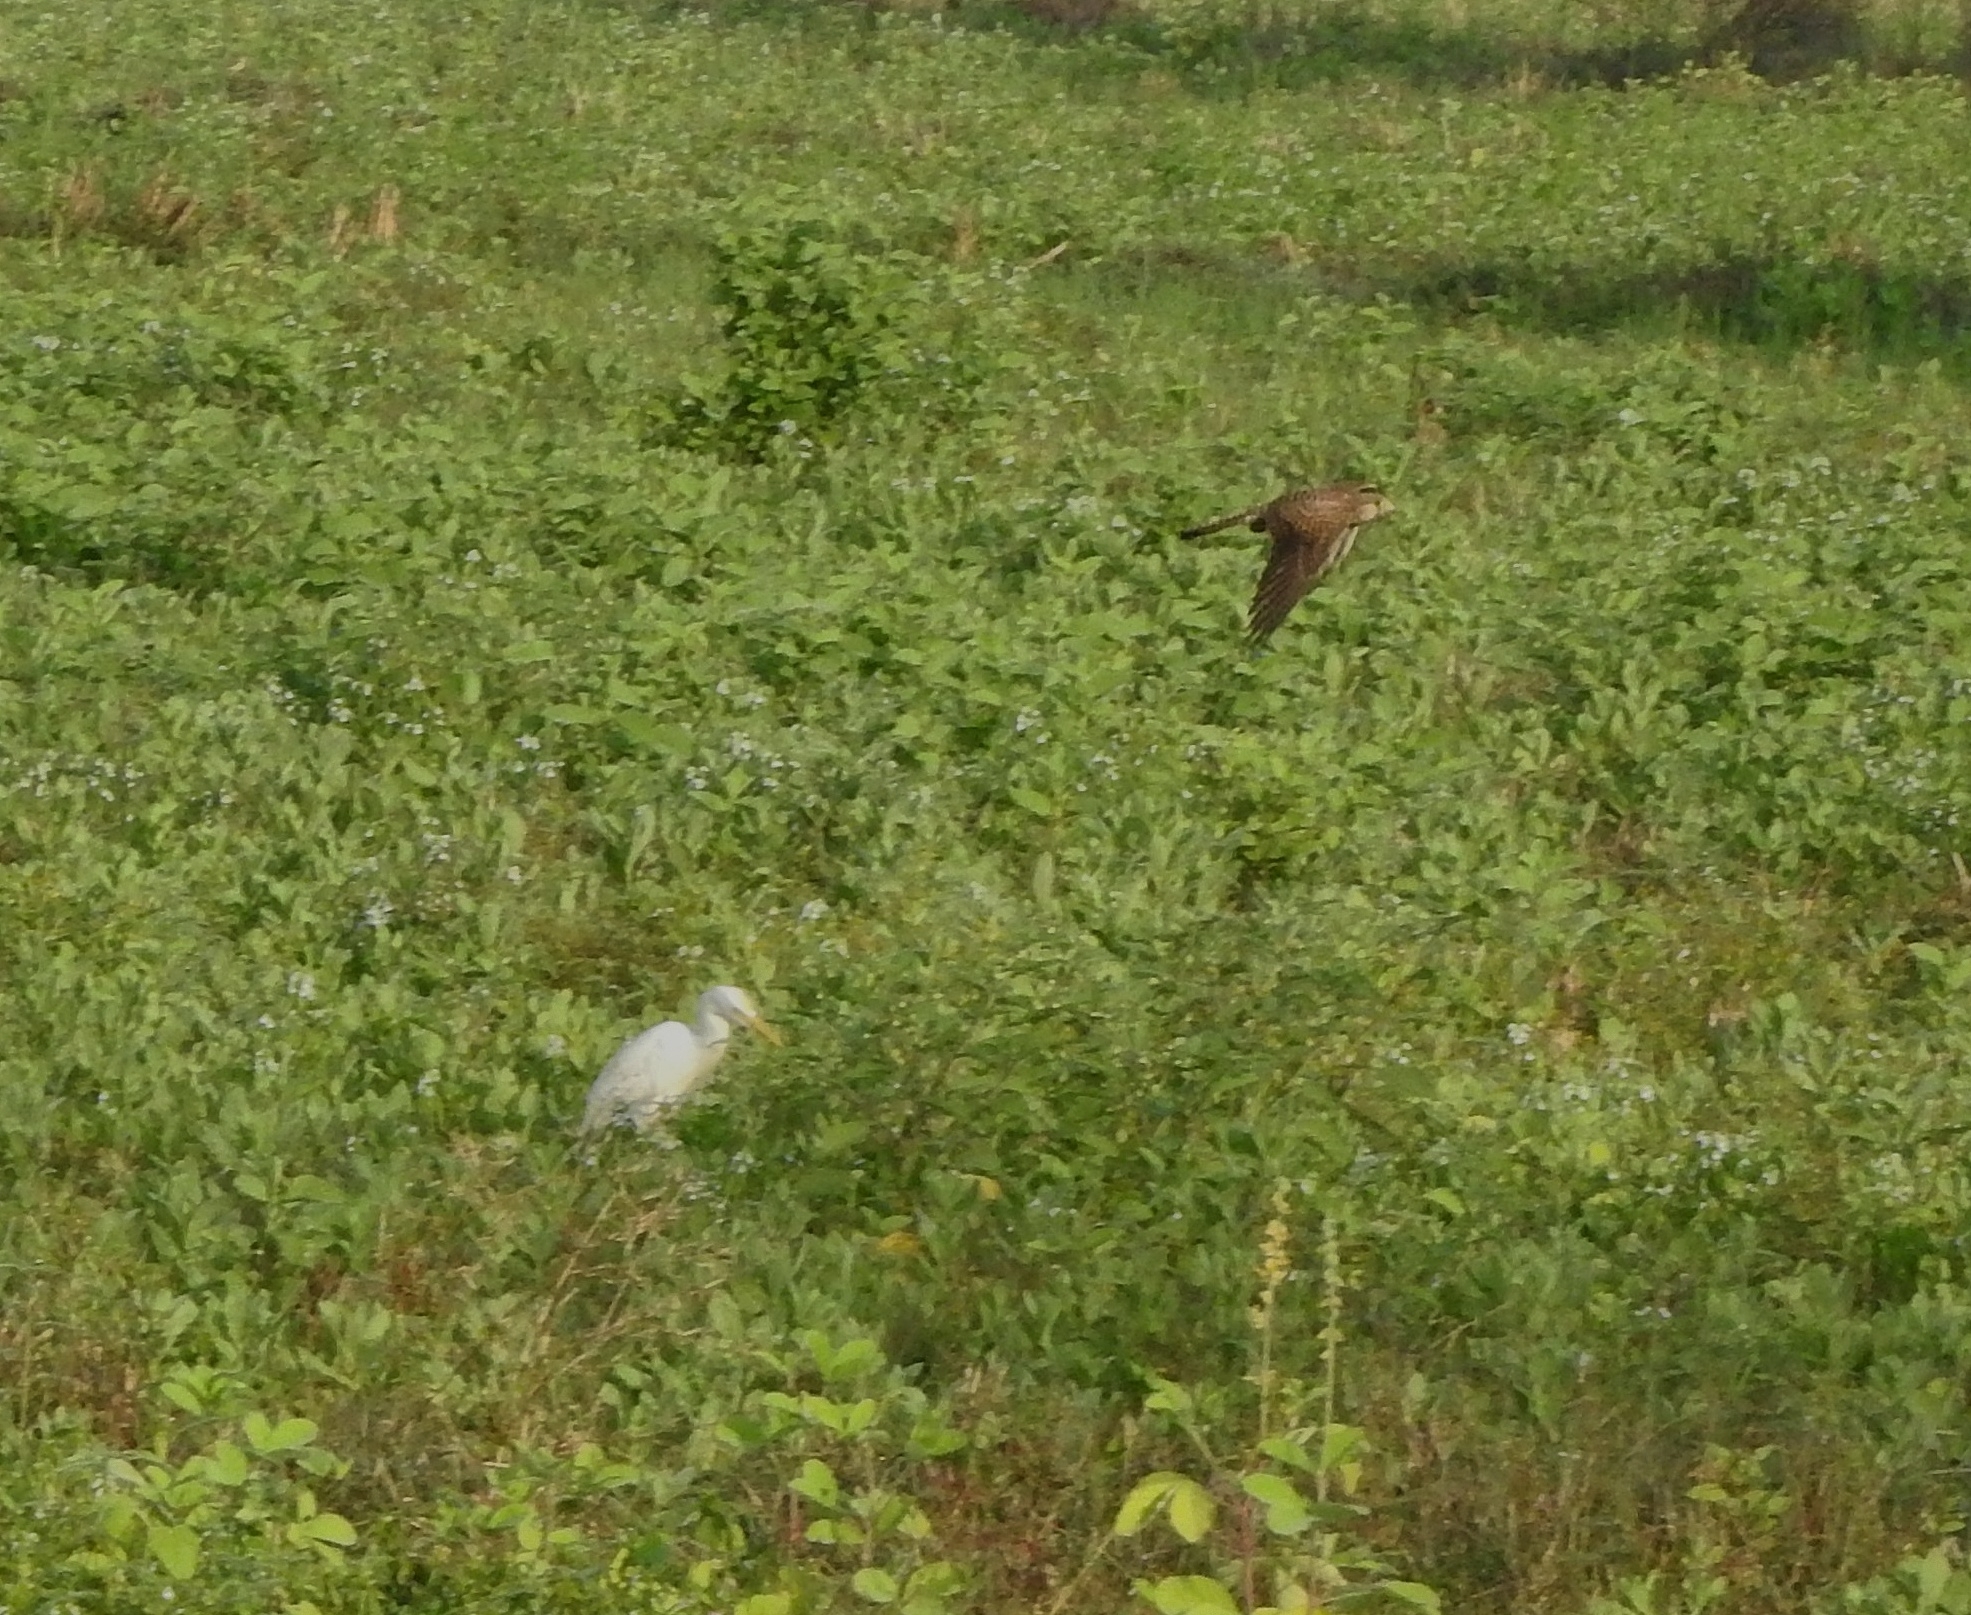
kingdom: Animalia
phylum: Chordata
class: Aves
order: Falconiformes
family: Falconidae
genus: Falco
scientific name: Falco tinnunculus
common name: Common kestrel
